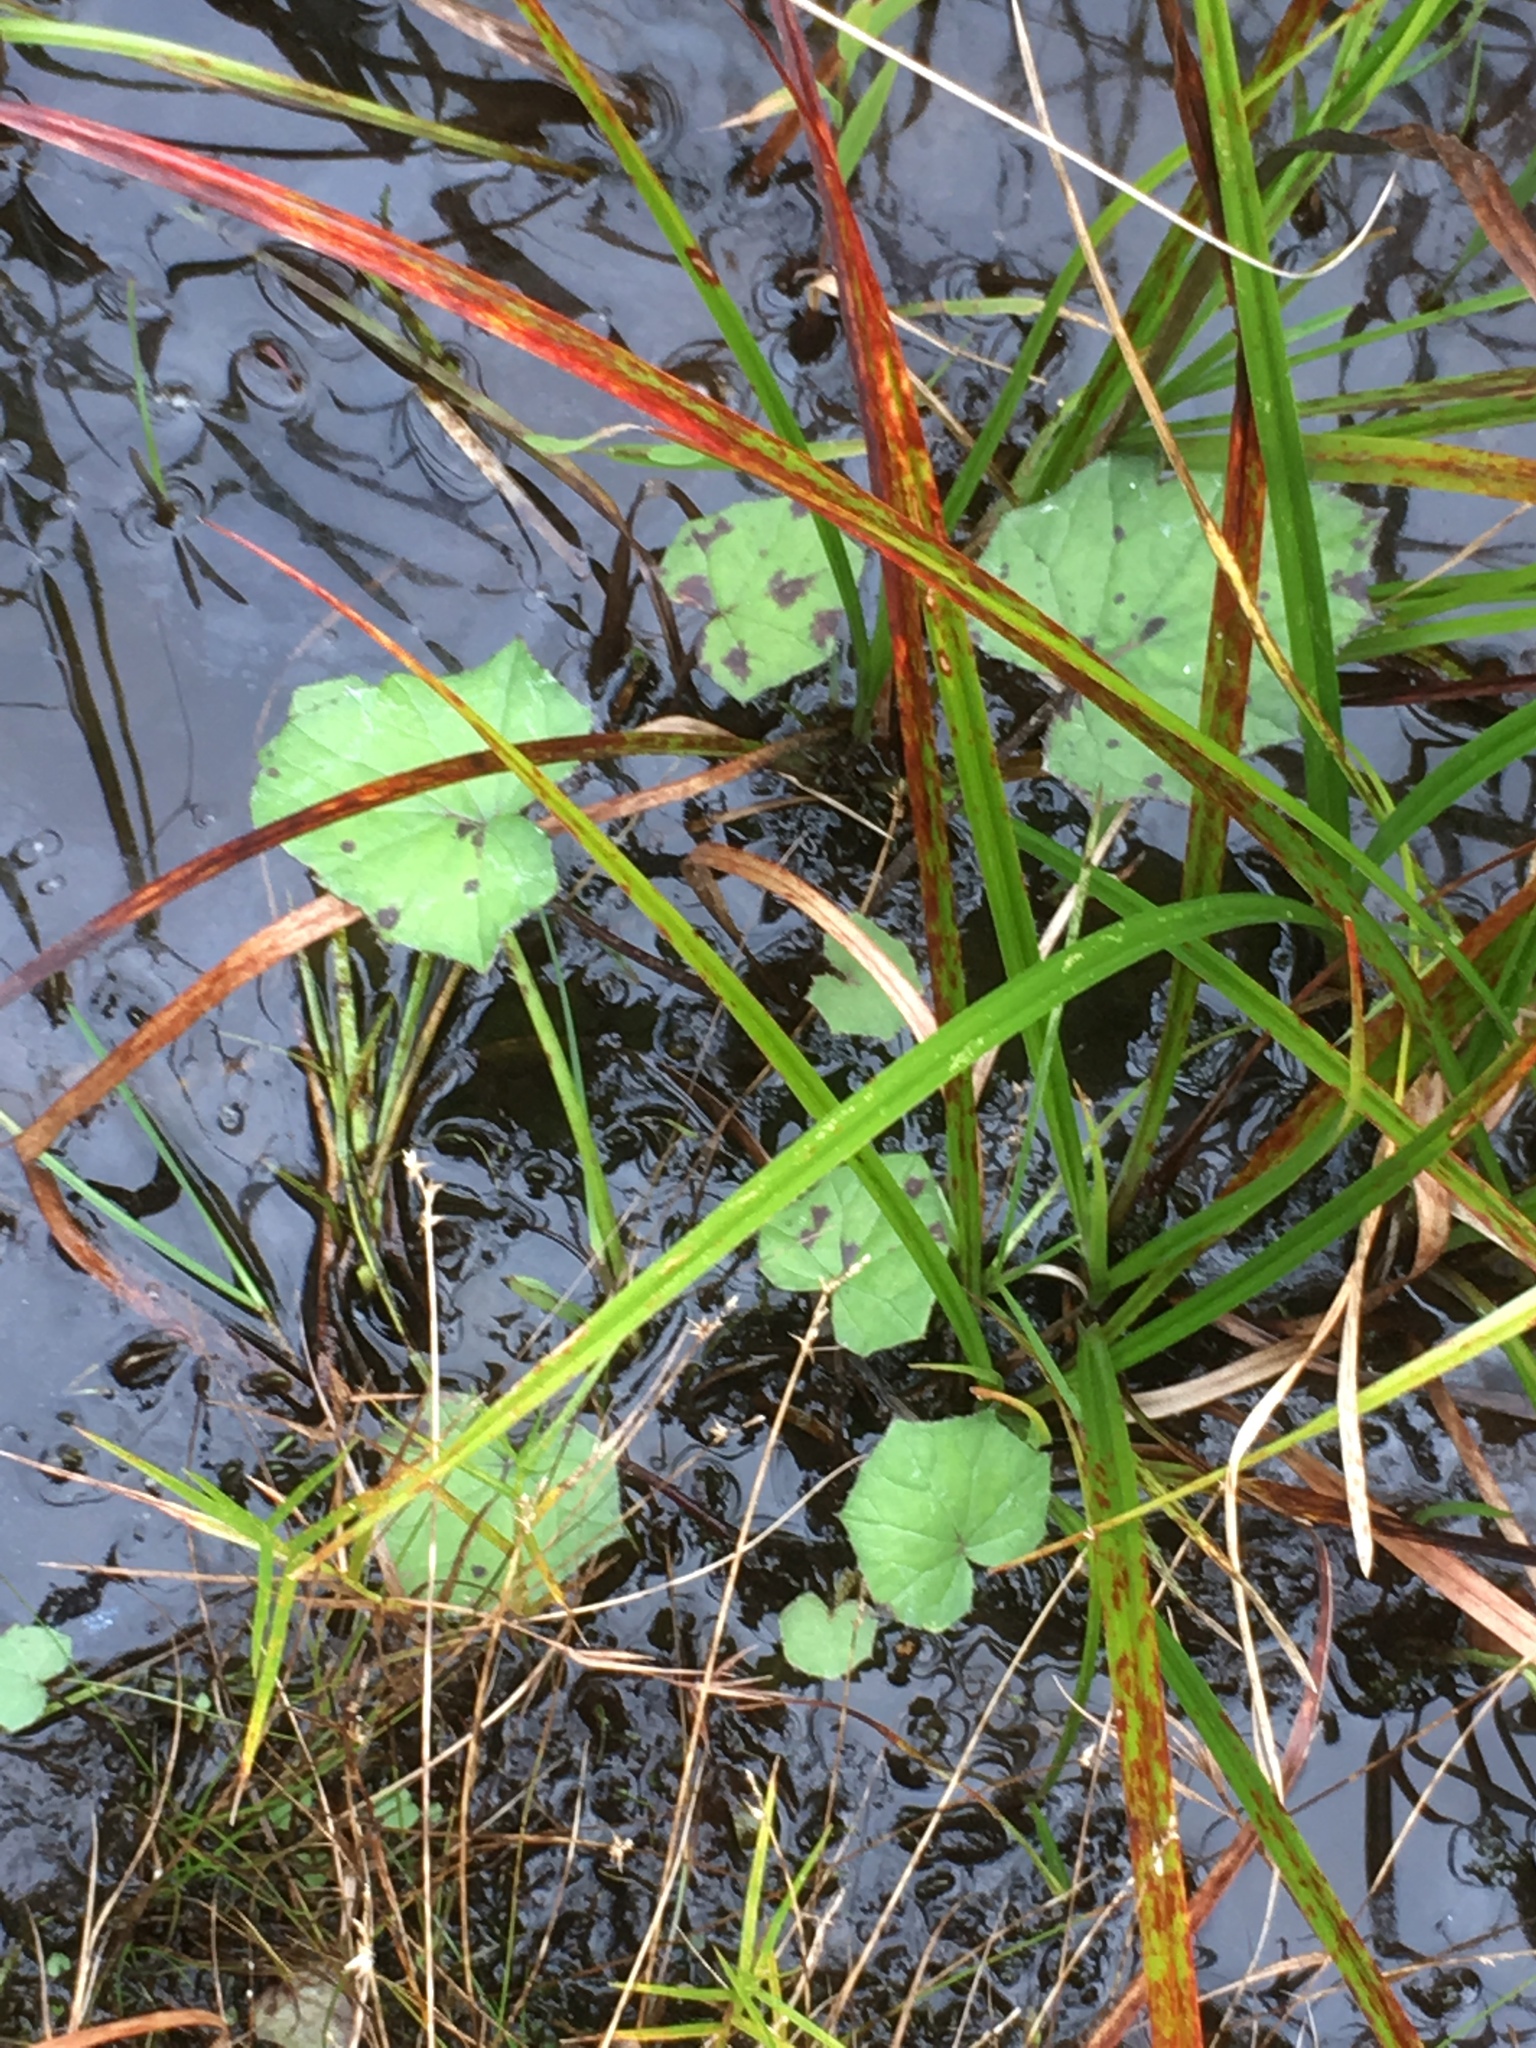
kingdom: Plantae
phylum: Tracheophyta
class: Magnoliopsida
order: Asterales
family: Asteraceae
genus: Tussilago
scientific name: Tussilago farfara
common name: Coltsfoot
